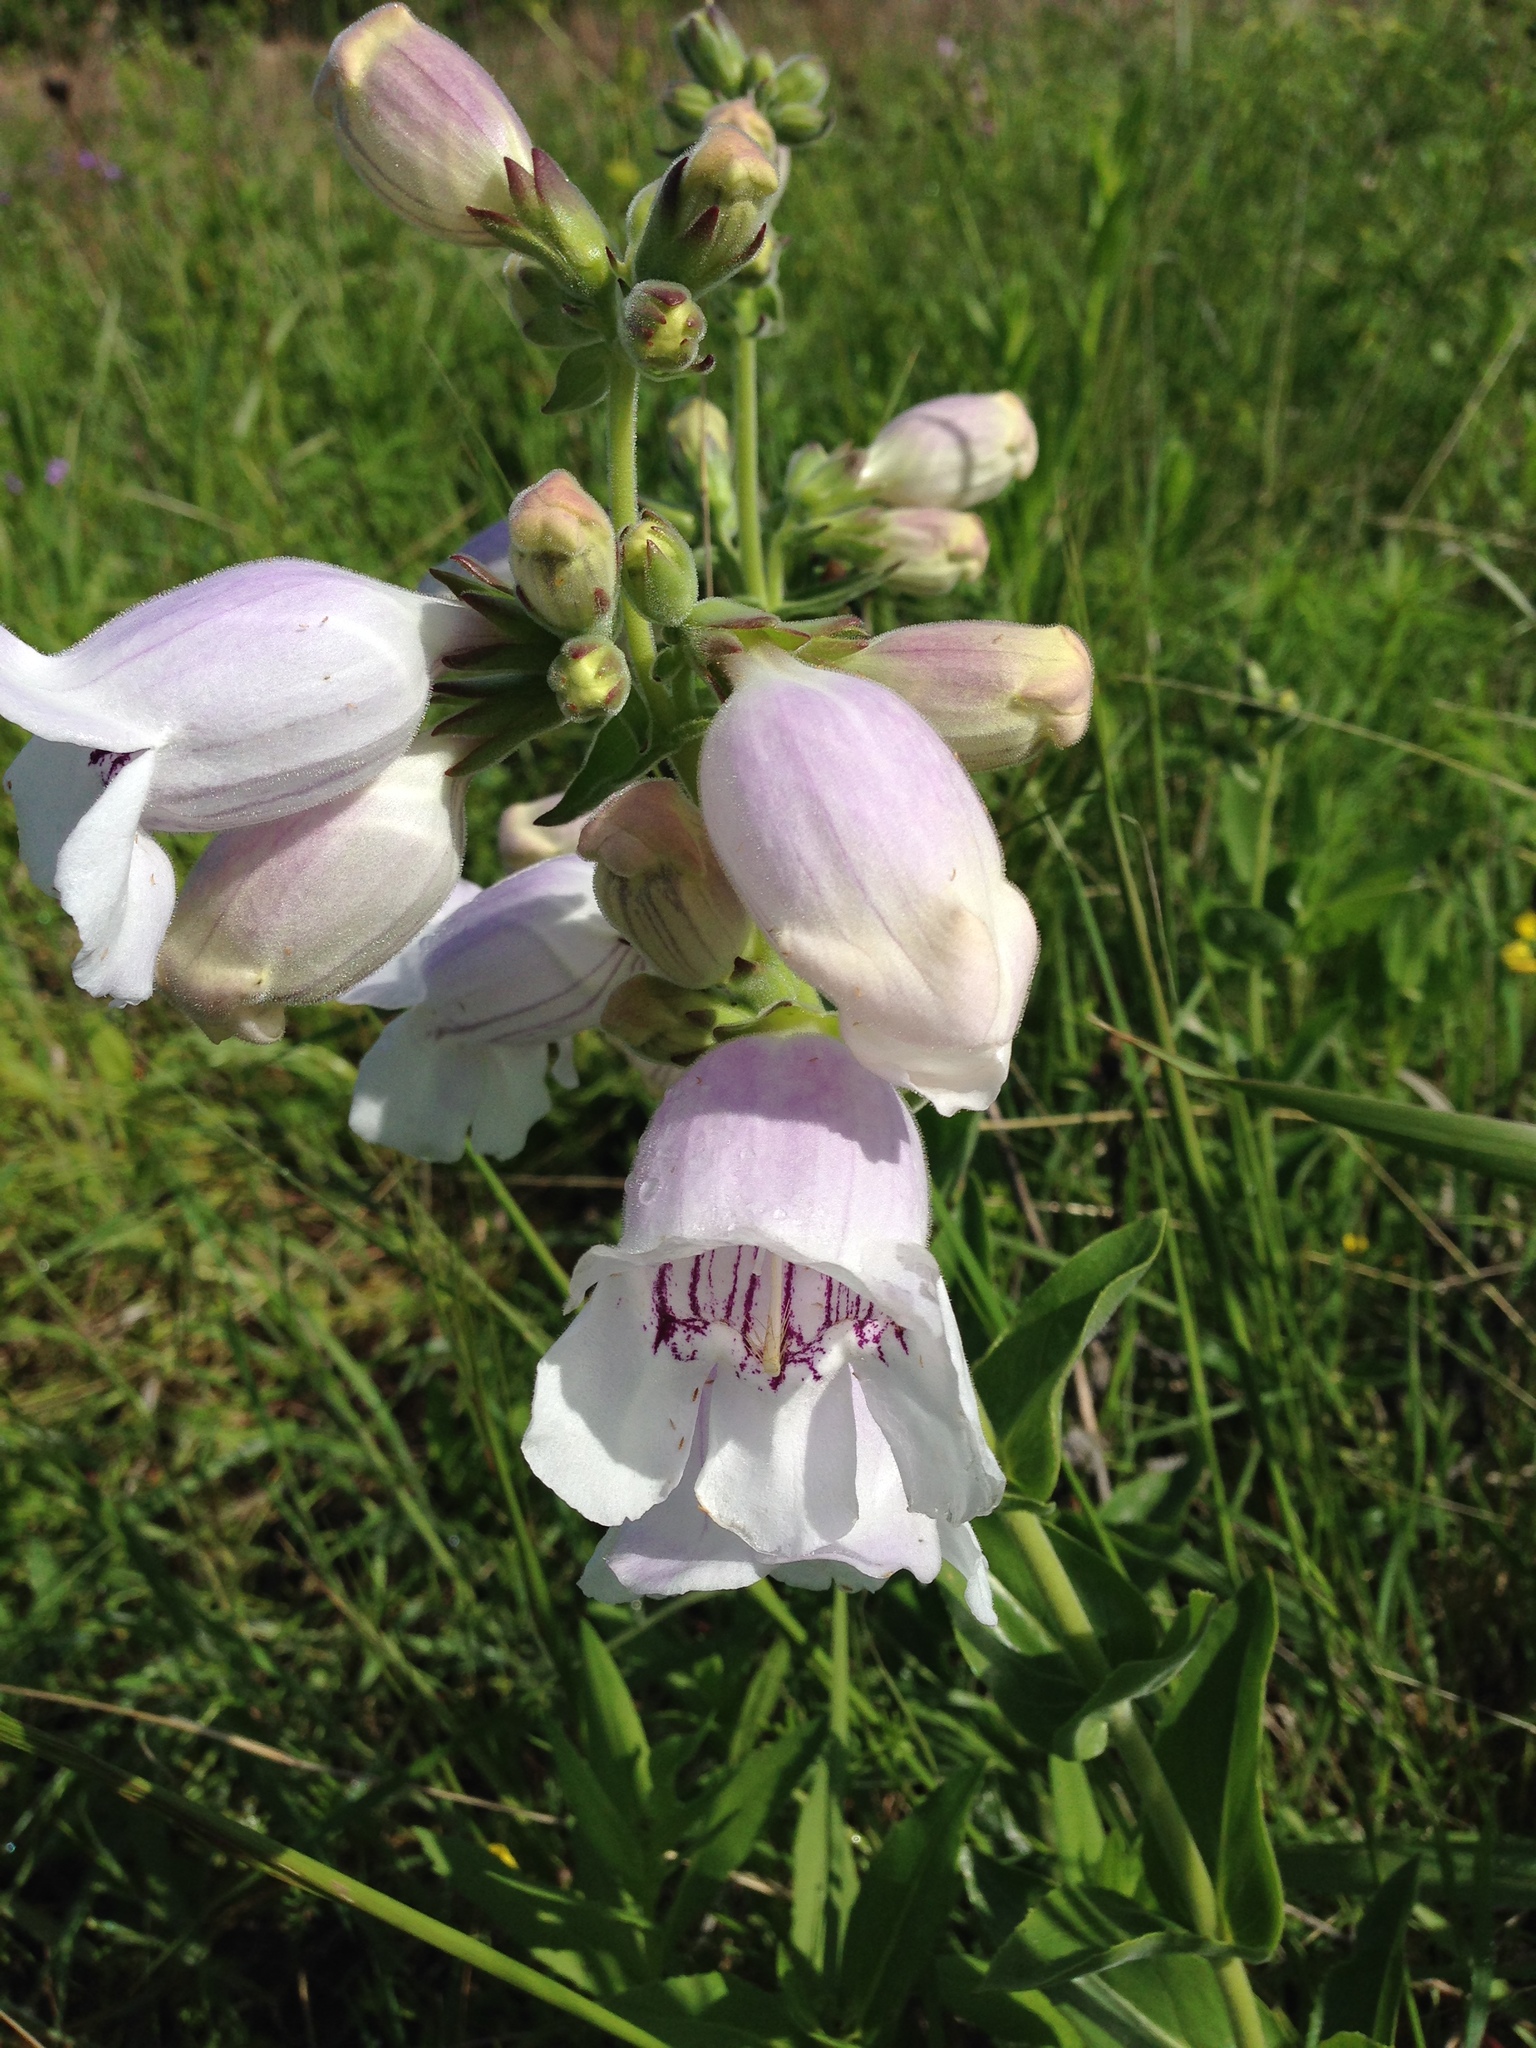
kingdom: Plantae
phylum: Tracheophyta
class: Magnoliopsida
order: Lamiales
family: Plantaginaceae
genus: Penstemon
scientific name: Penstemon cobaea
